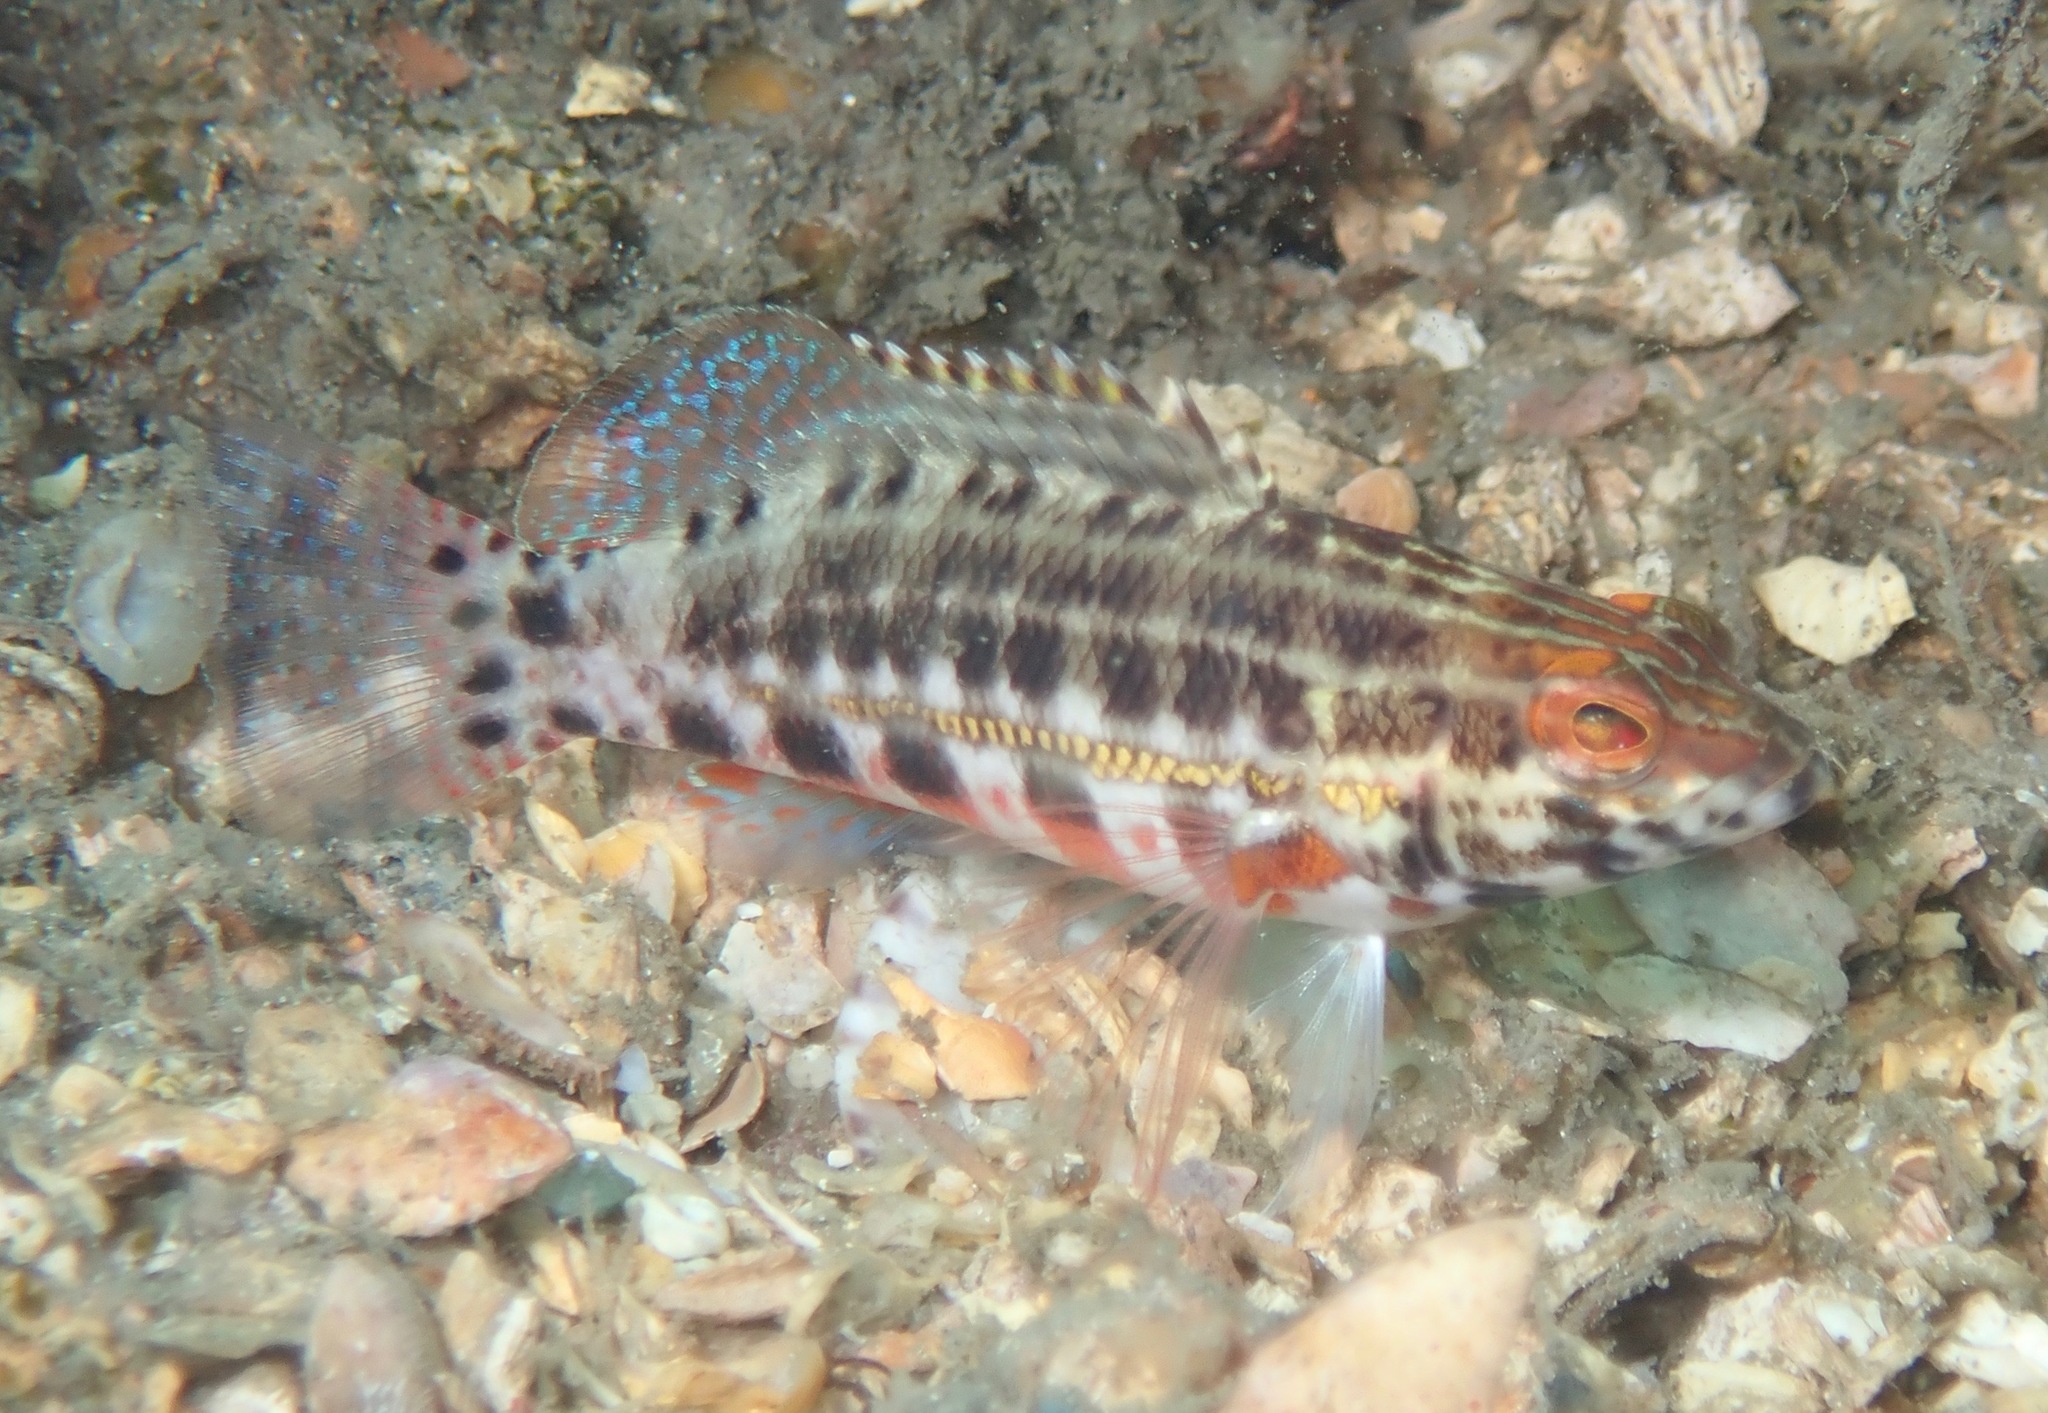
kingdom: Animalia
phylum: Chordata
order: Perciformes
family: Serranidae
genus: Serranus
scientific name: Serranus baldwini
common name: Lantern bass
